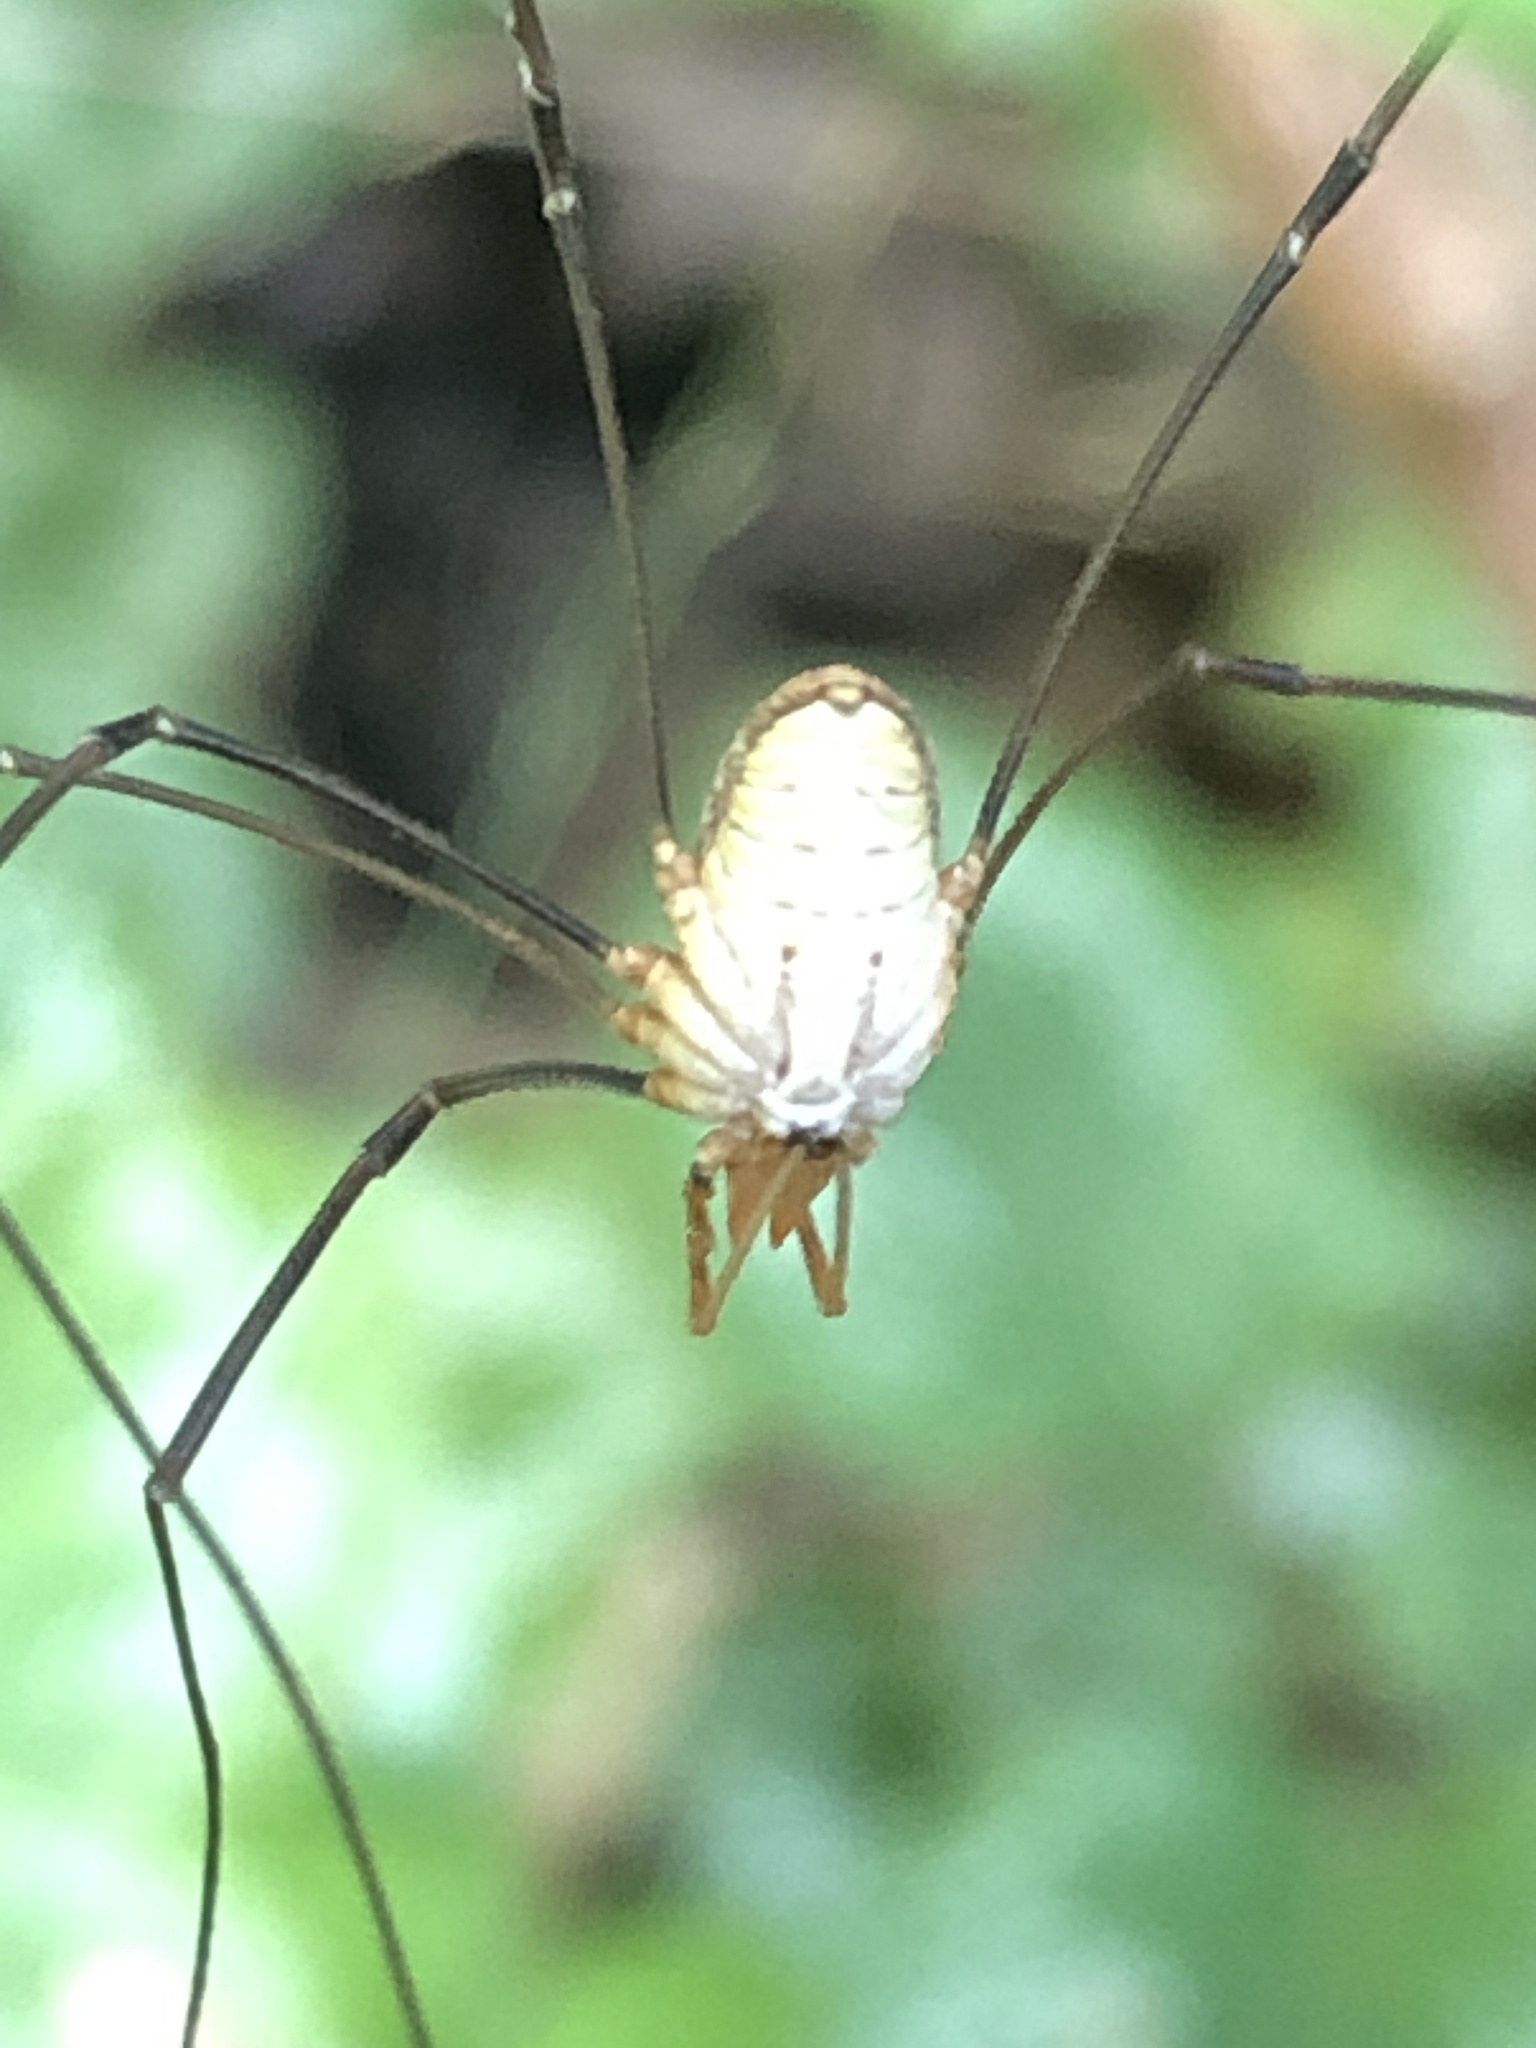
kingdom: Animalia
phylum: Arthropoda
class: Arachnida
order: Opiliones
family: Phalangiidae
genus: Phalangium
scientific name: Phalangium opilio
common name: Daddy longleg
